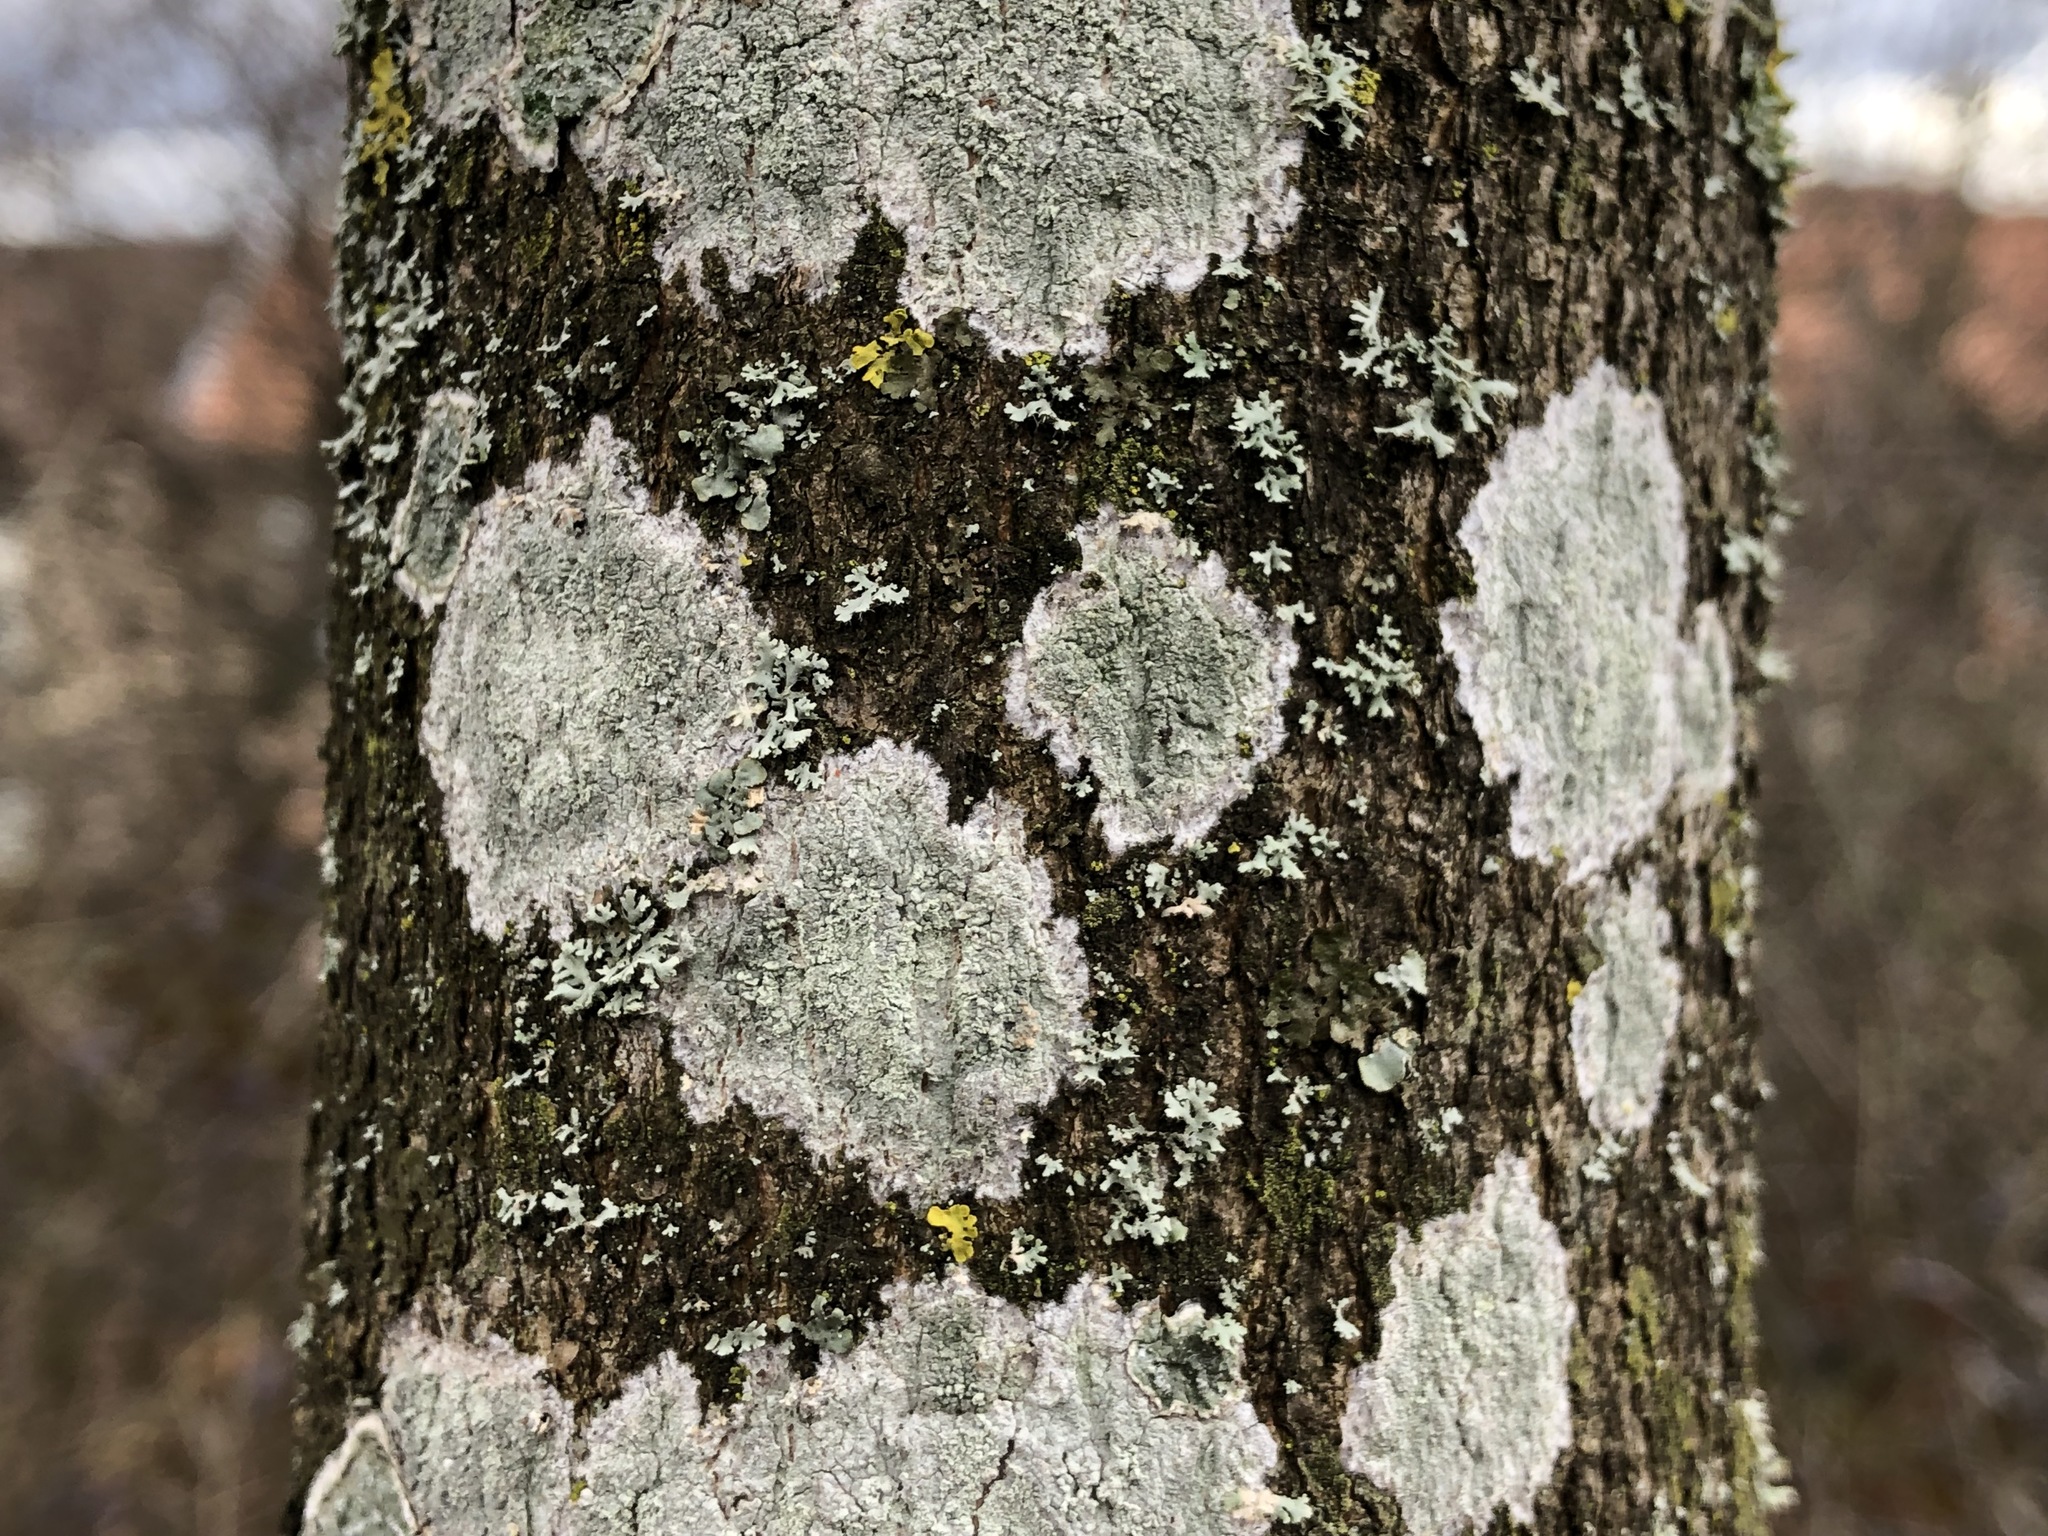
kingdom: Fungi
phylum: Ascomycota
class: Lecanoromycetes
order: Ostropales
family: Phlyctidaceae
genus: Phlyctis
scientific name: Phlyctis argena
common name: Whitewash lichen
